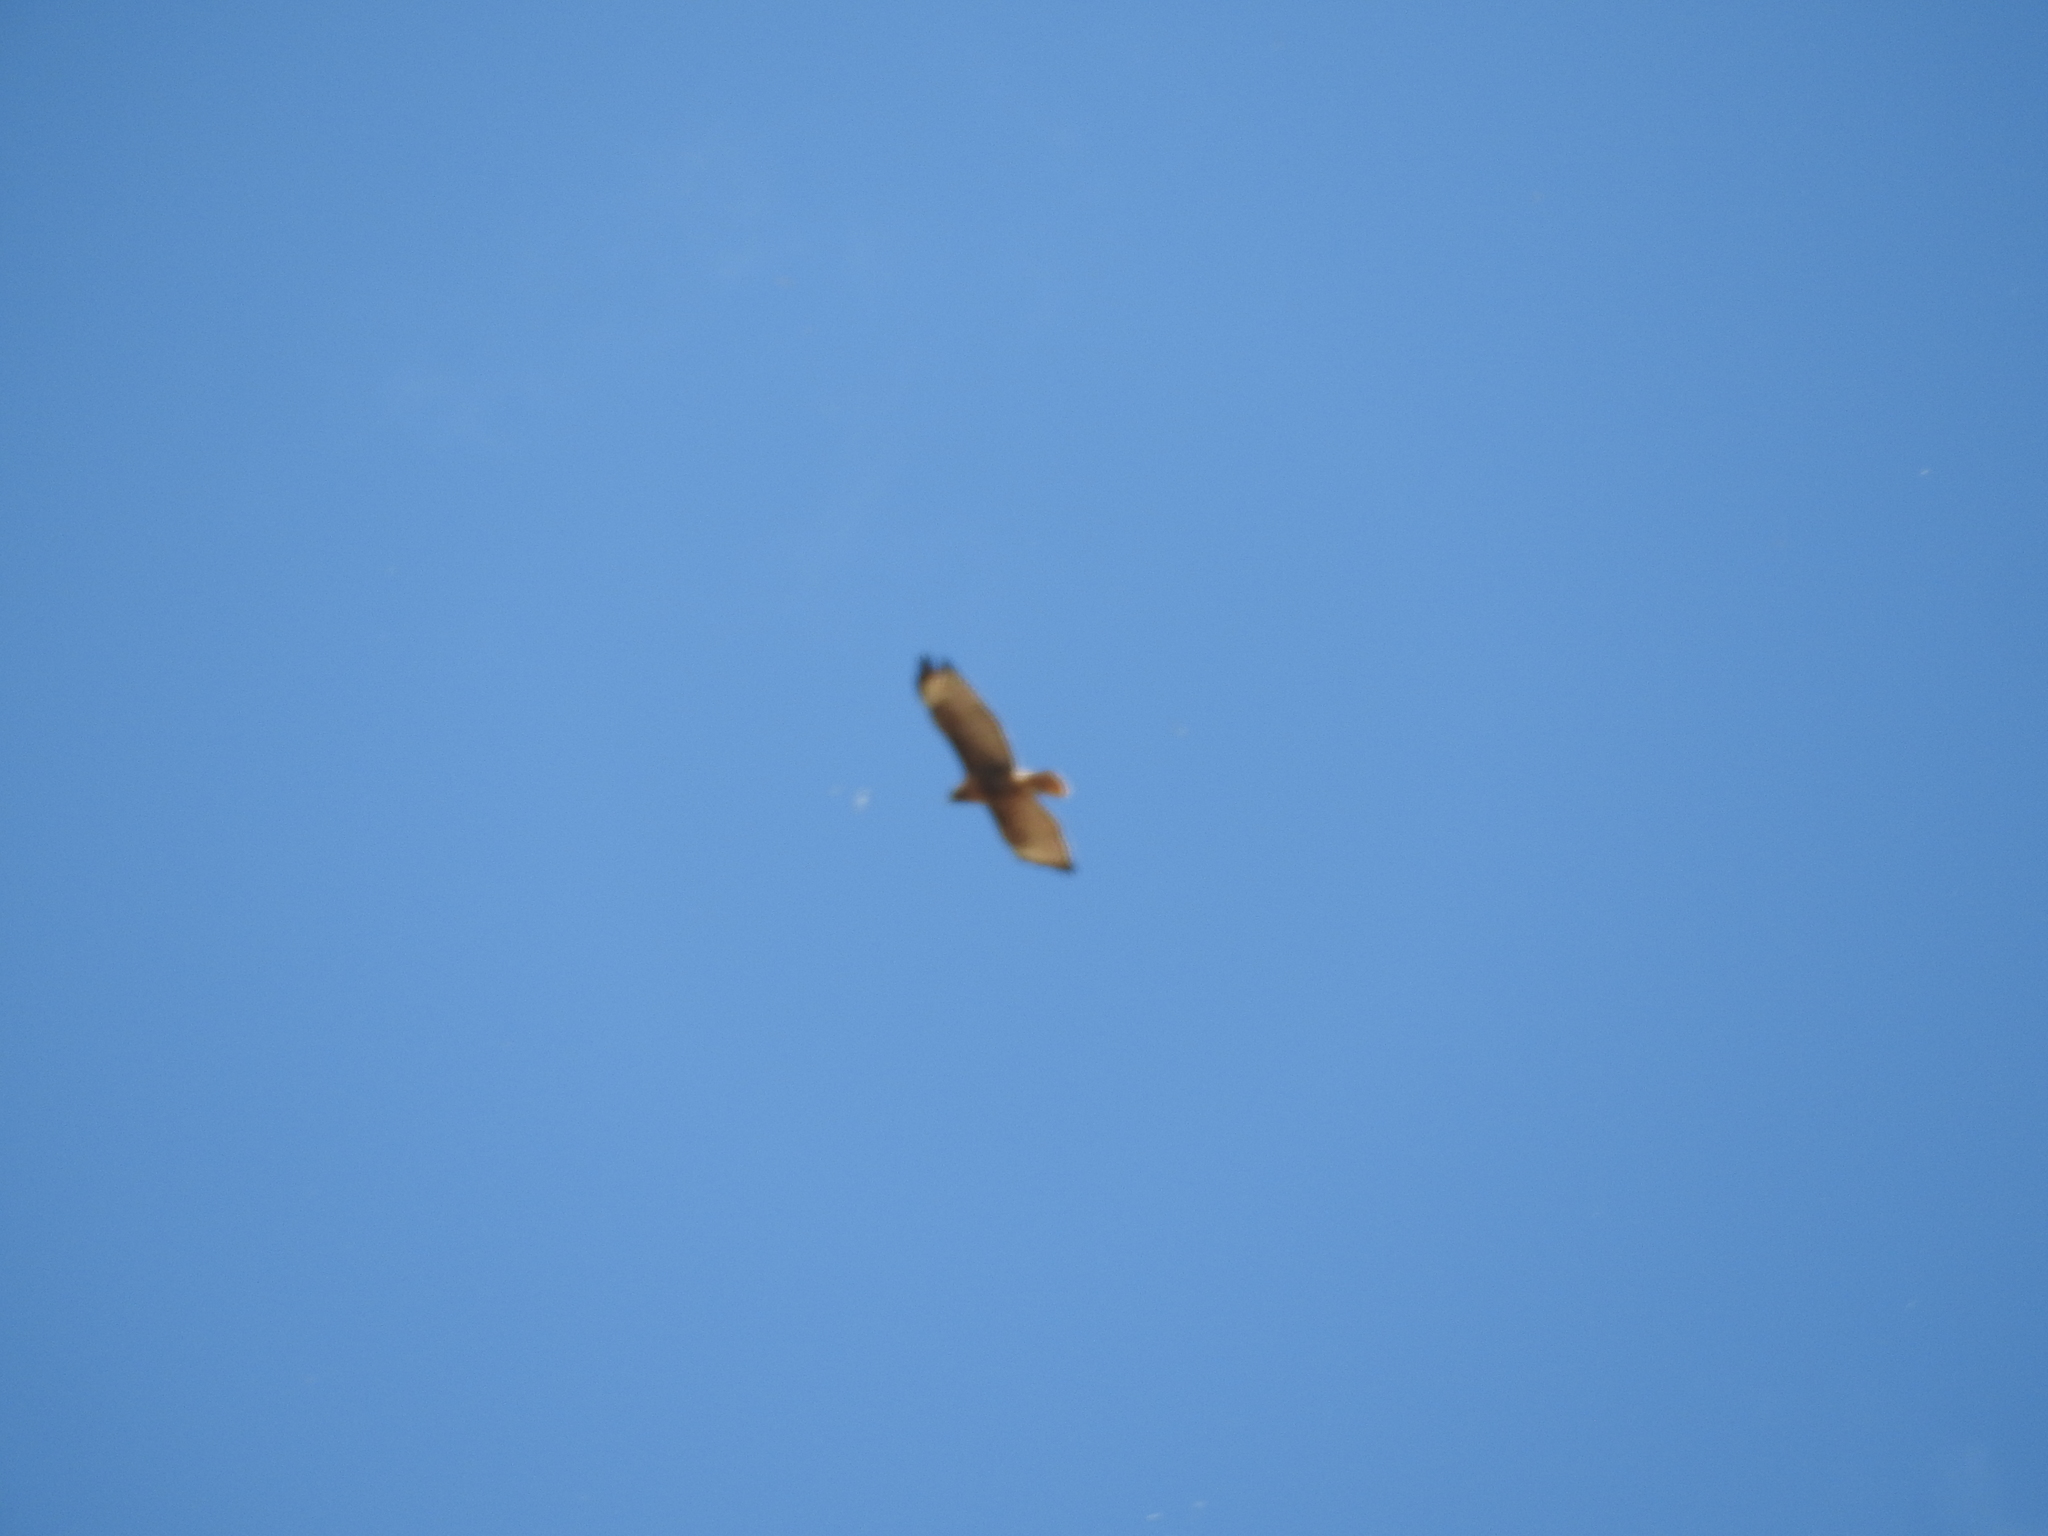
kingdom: Animalia
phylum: Chordata
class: Aves
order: Accipitriformes
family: Accipitridae
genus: Buteo
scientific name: Buteo jamaicensis
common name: Red-tailed hawk
